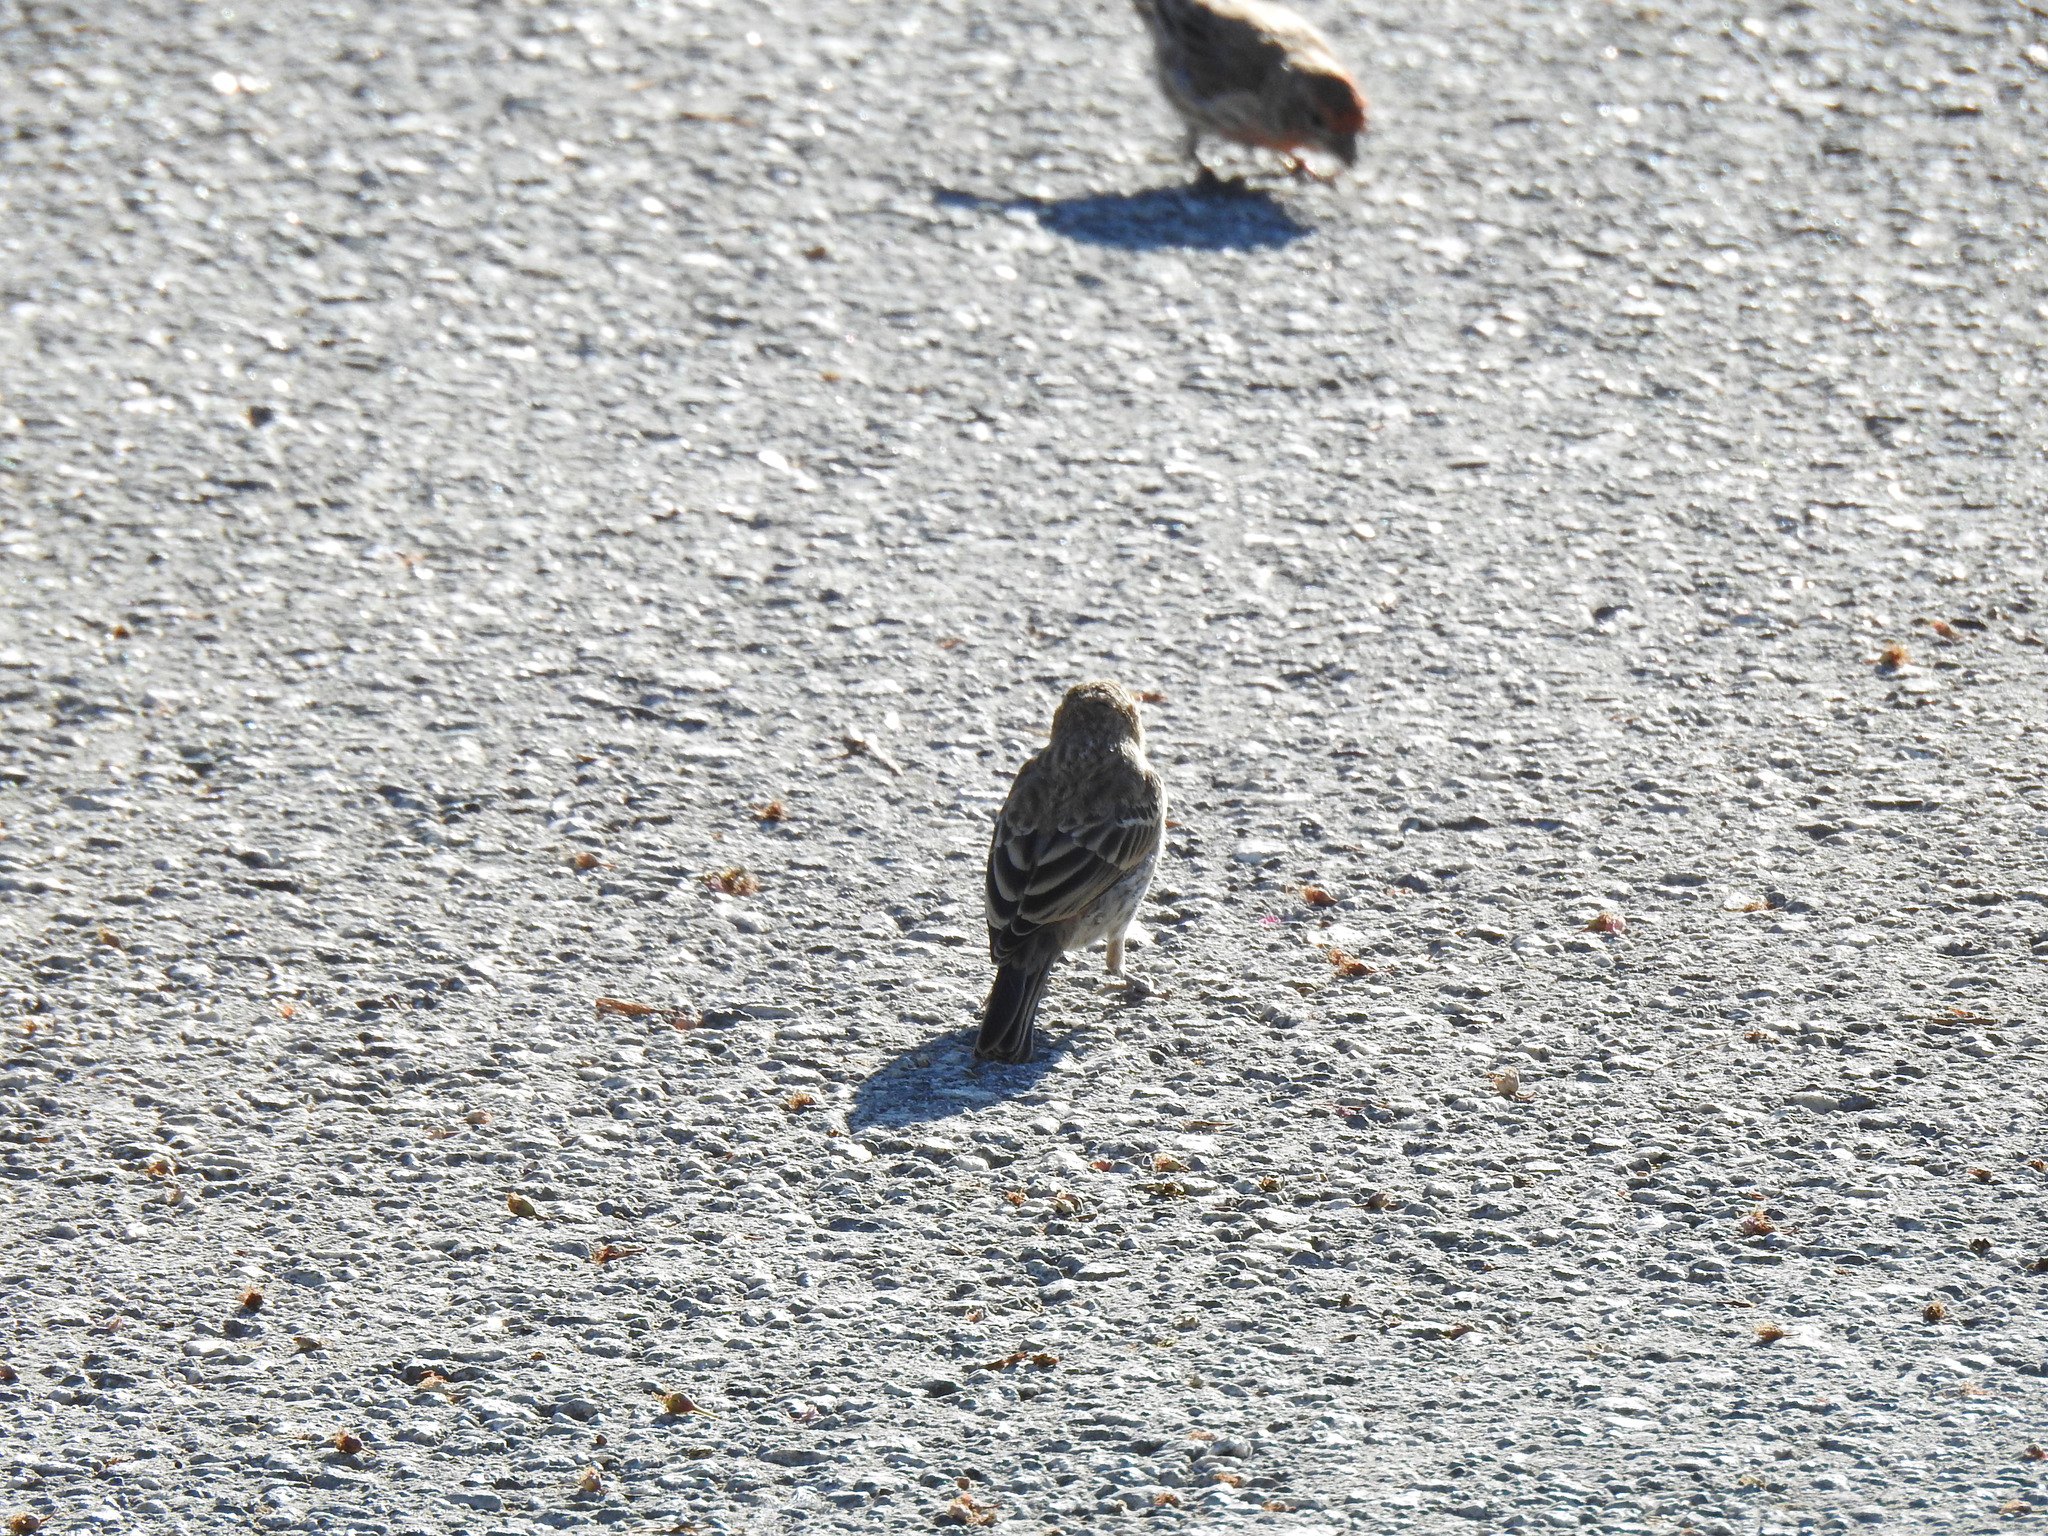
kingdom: Animalia
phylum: Chordata
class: Aves
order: Passeriformes
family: Fringillidae
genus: Haemorhous
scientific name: Haemorhous mexicanus
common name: House finch
